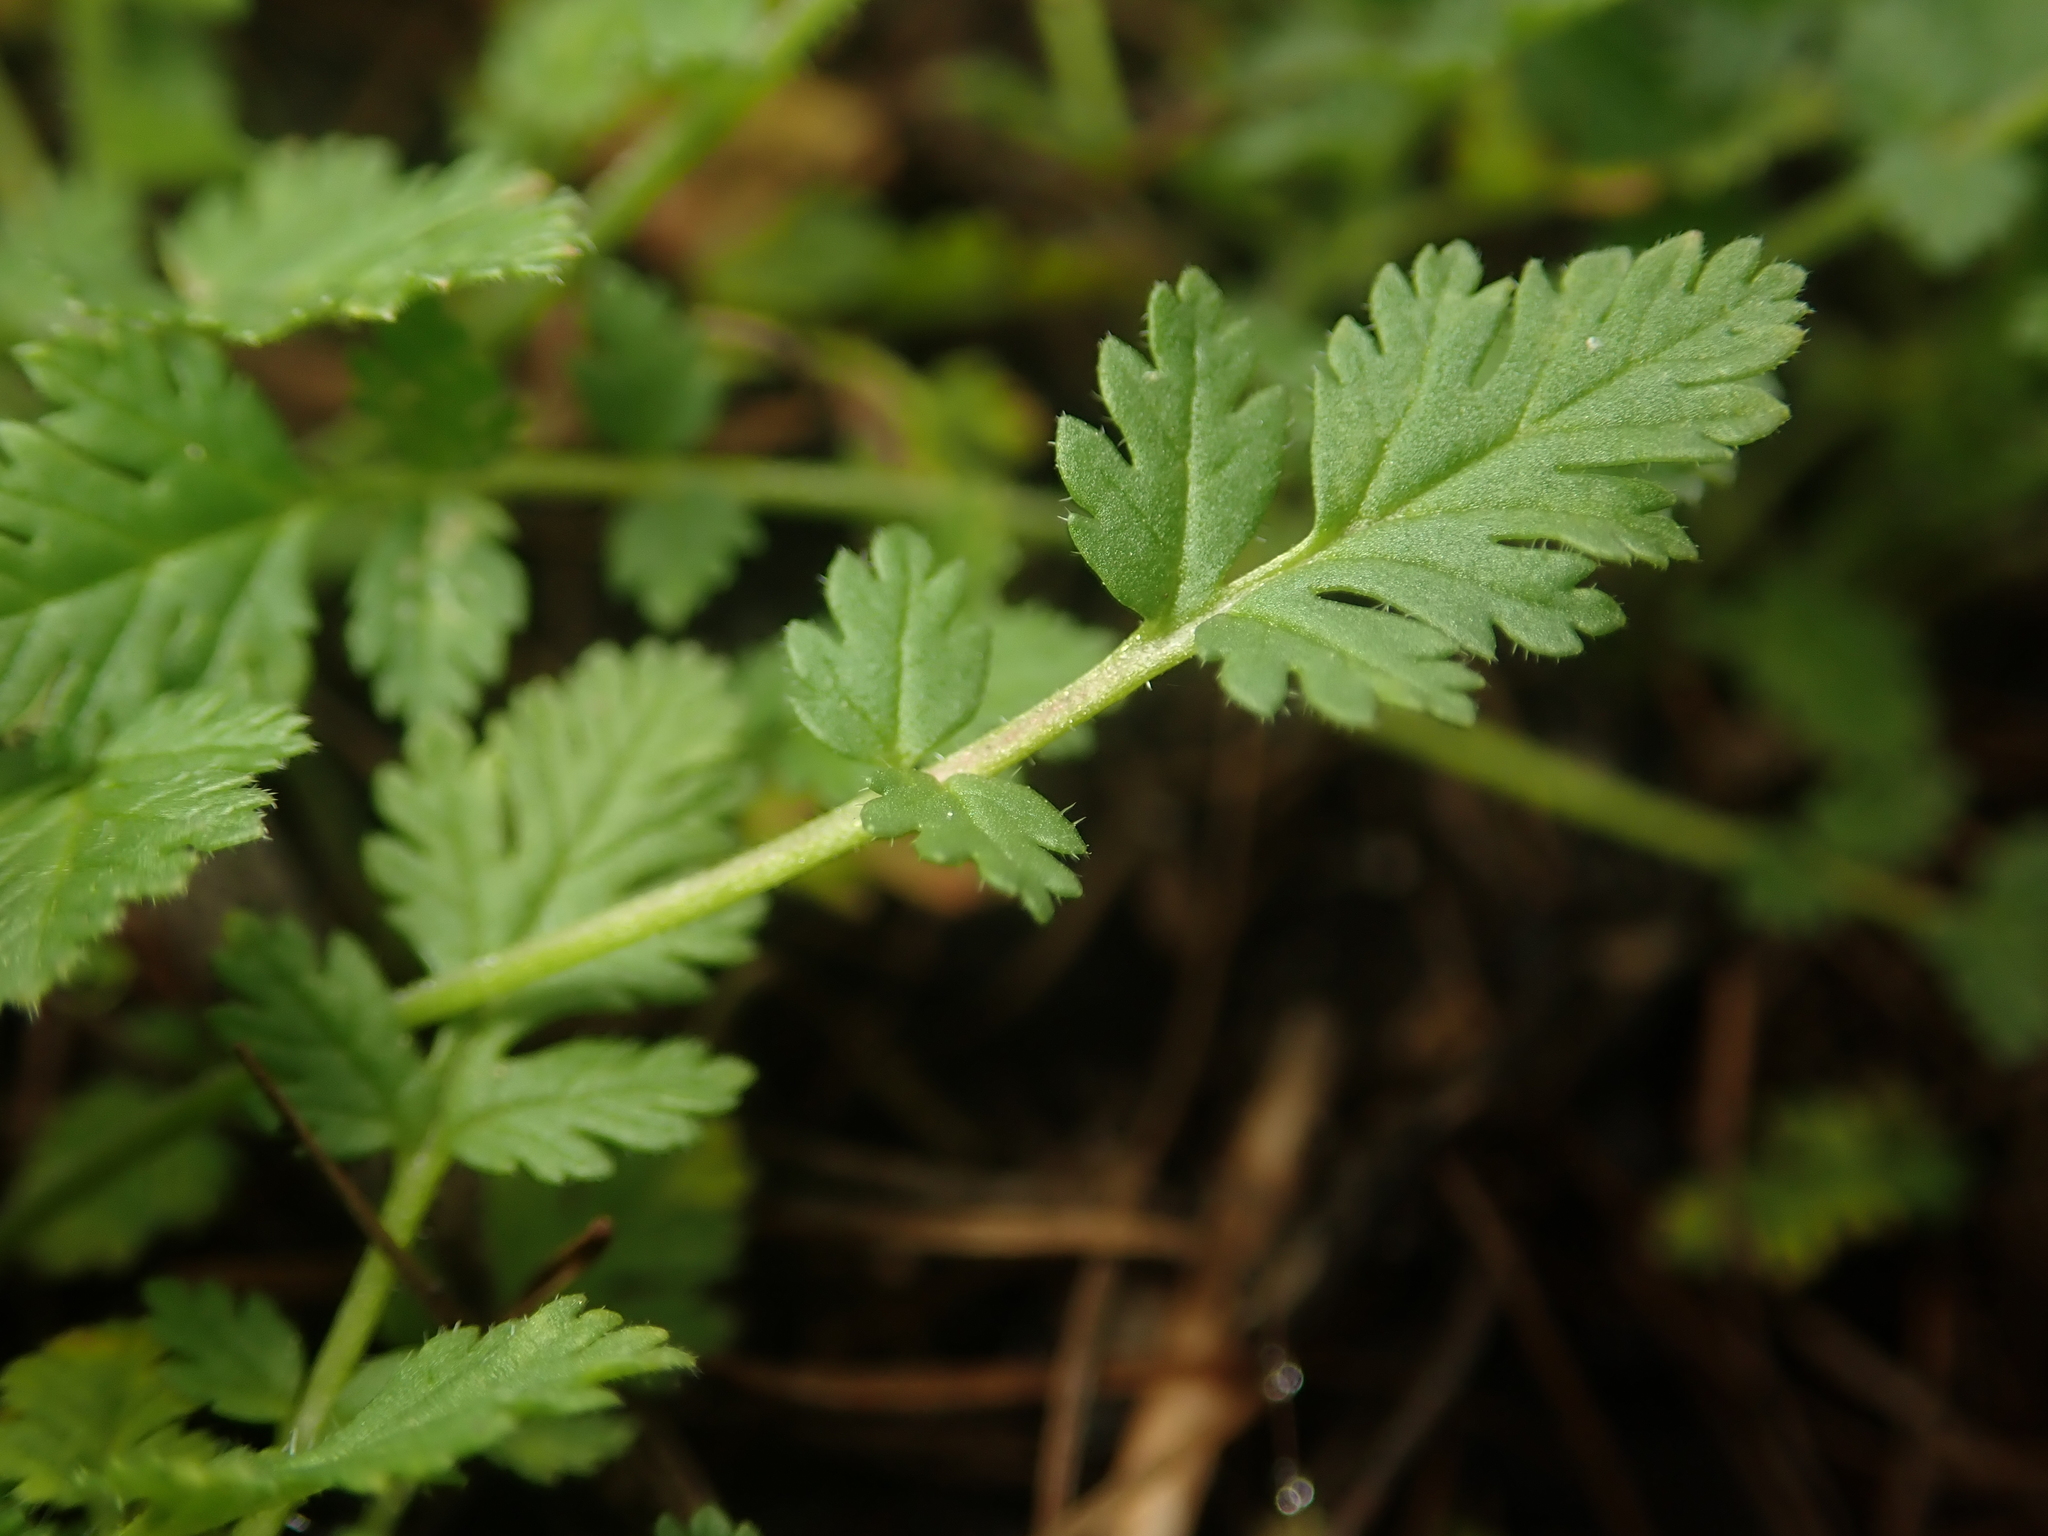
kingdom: Plantae
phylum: Tracheophyta
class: Magnoliopsida
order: Geraniales
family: Geraniaceae
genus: Erodium
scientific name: Erodium cicutarium
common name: Common stork's-bill
